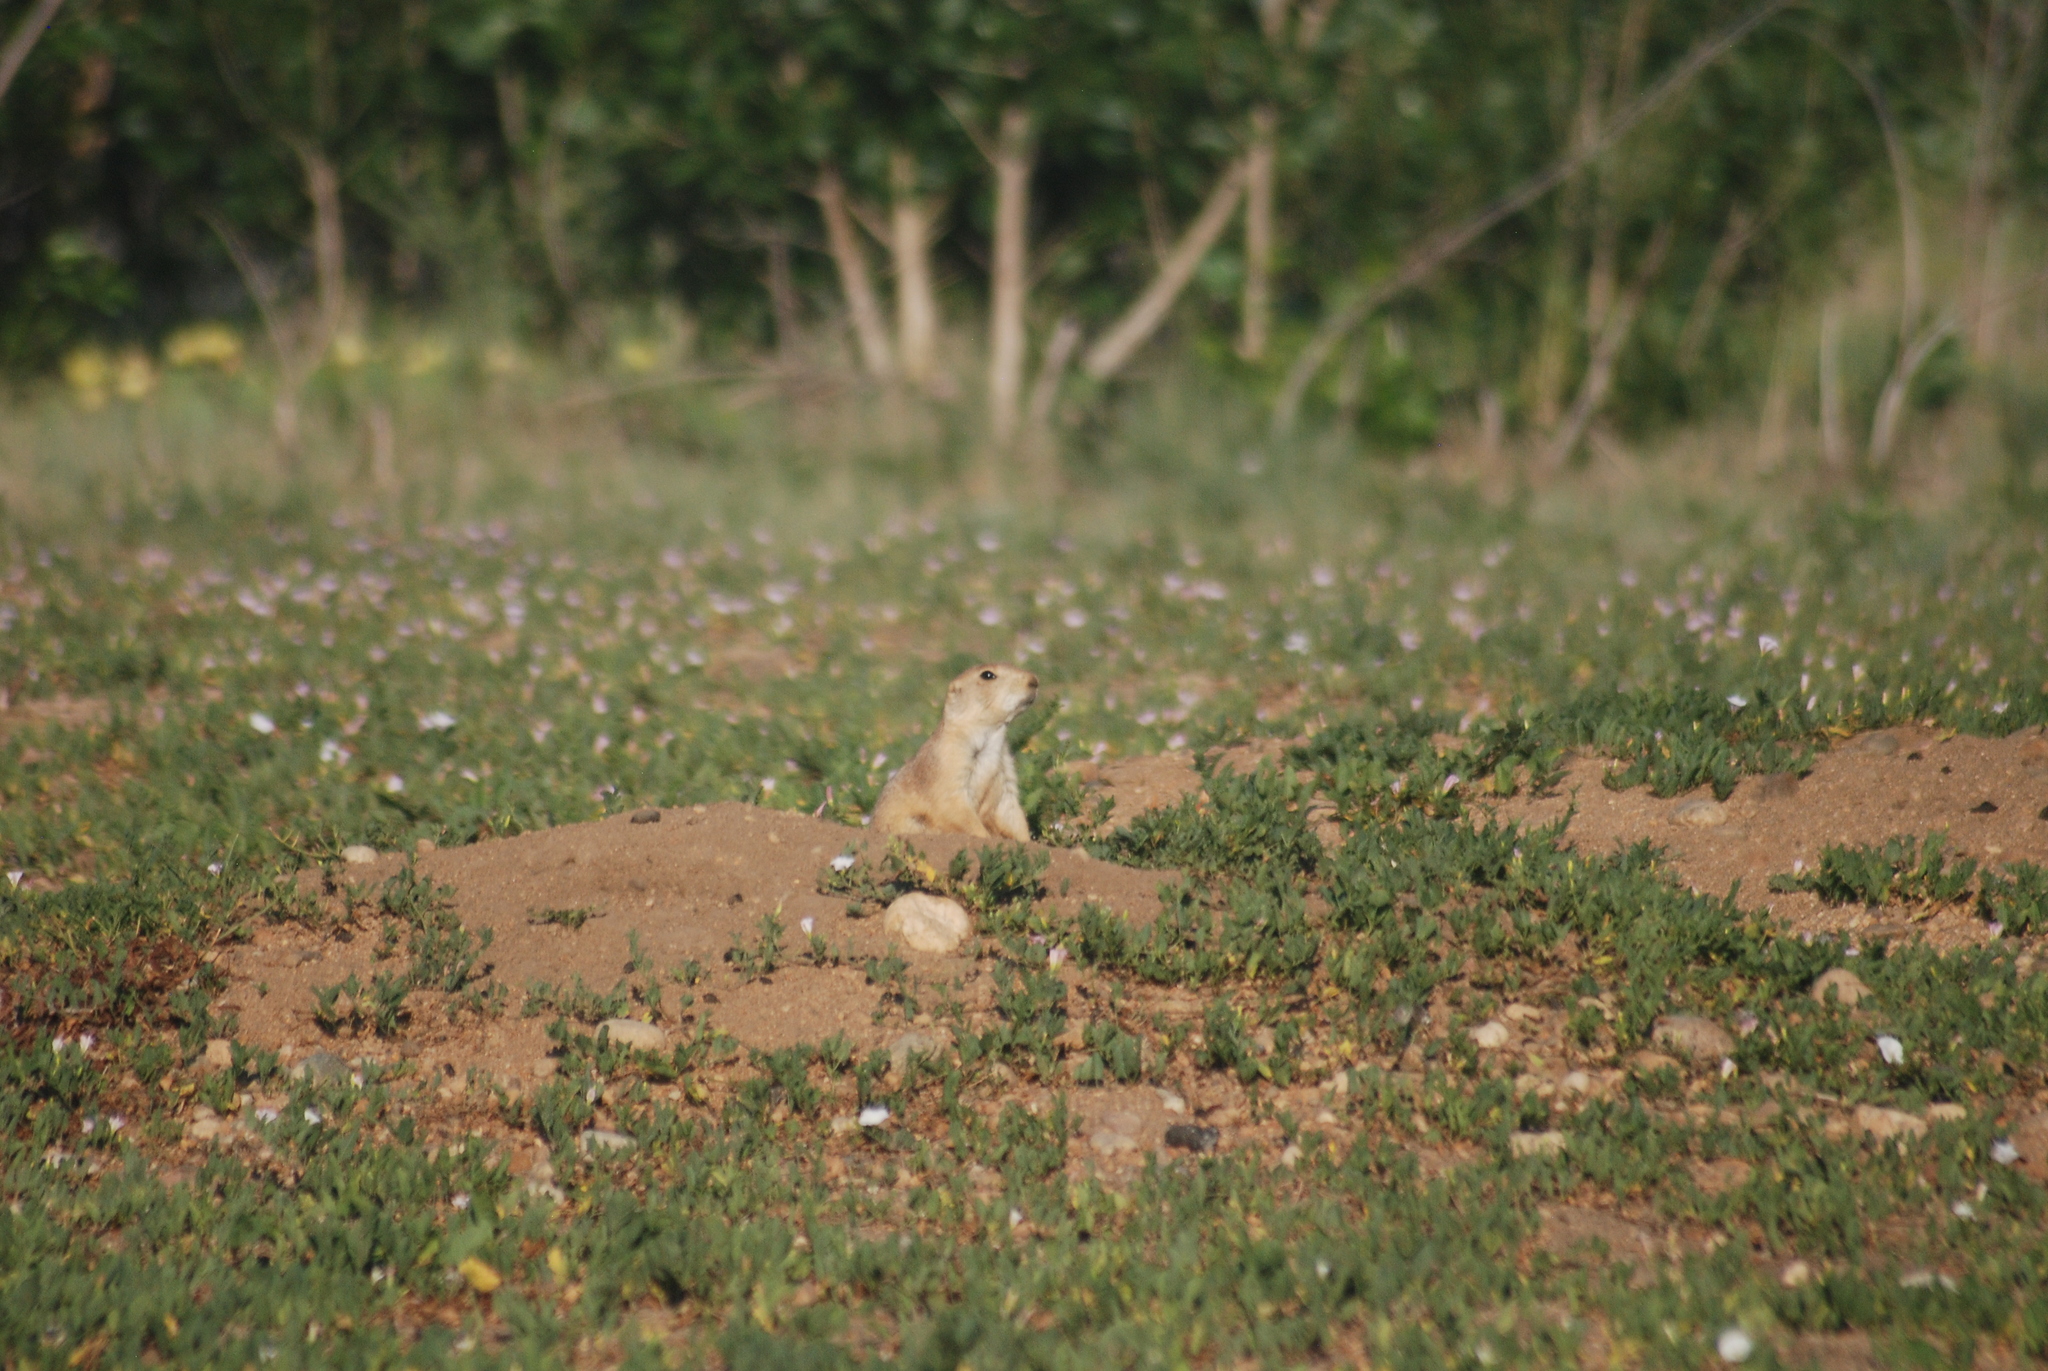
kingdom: Animalia
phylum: Chordata
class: Mammalia
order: Rodentia
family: Sciuridae
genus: Cynomys
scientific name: Cynomys ludovicianus
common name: Black-tailed prairie dog
